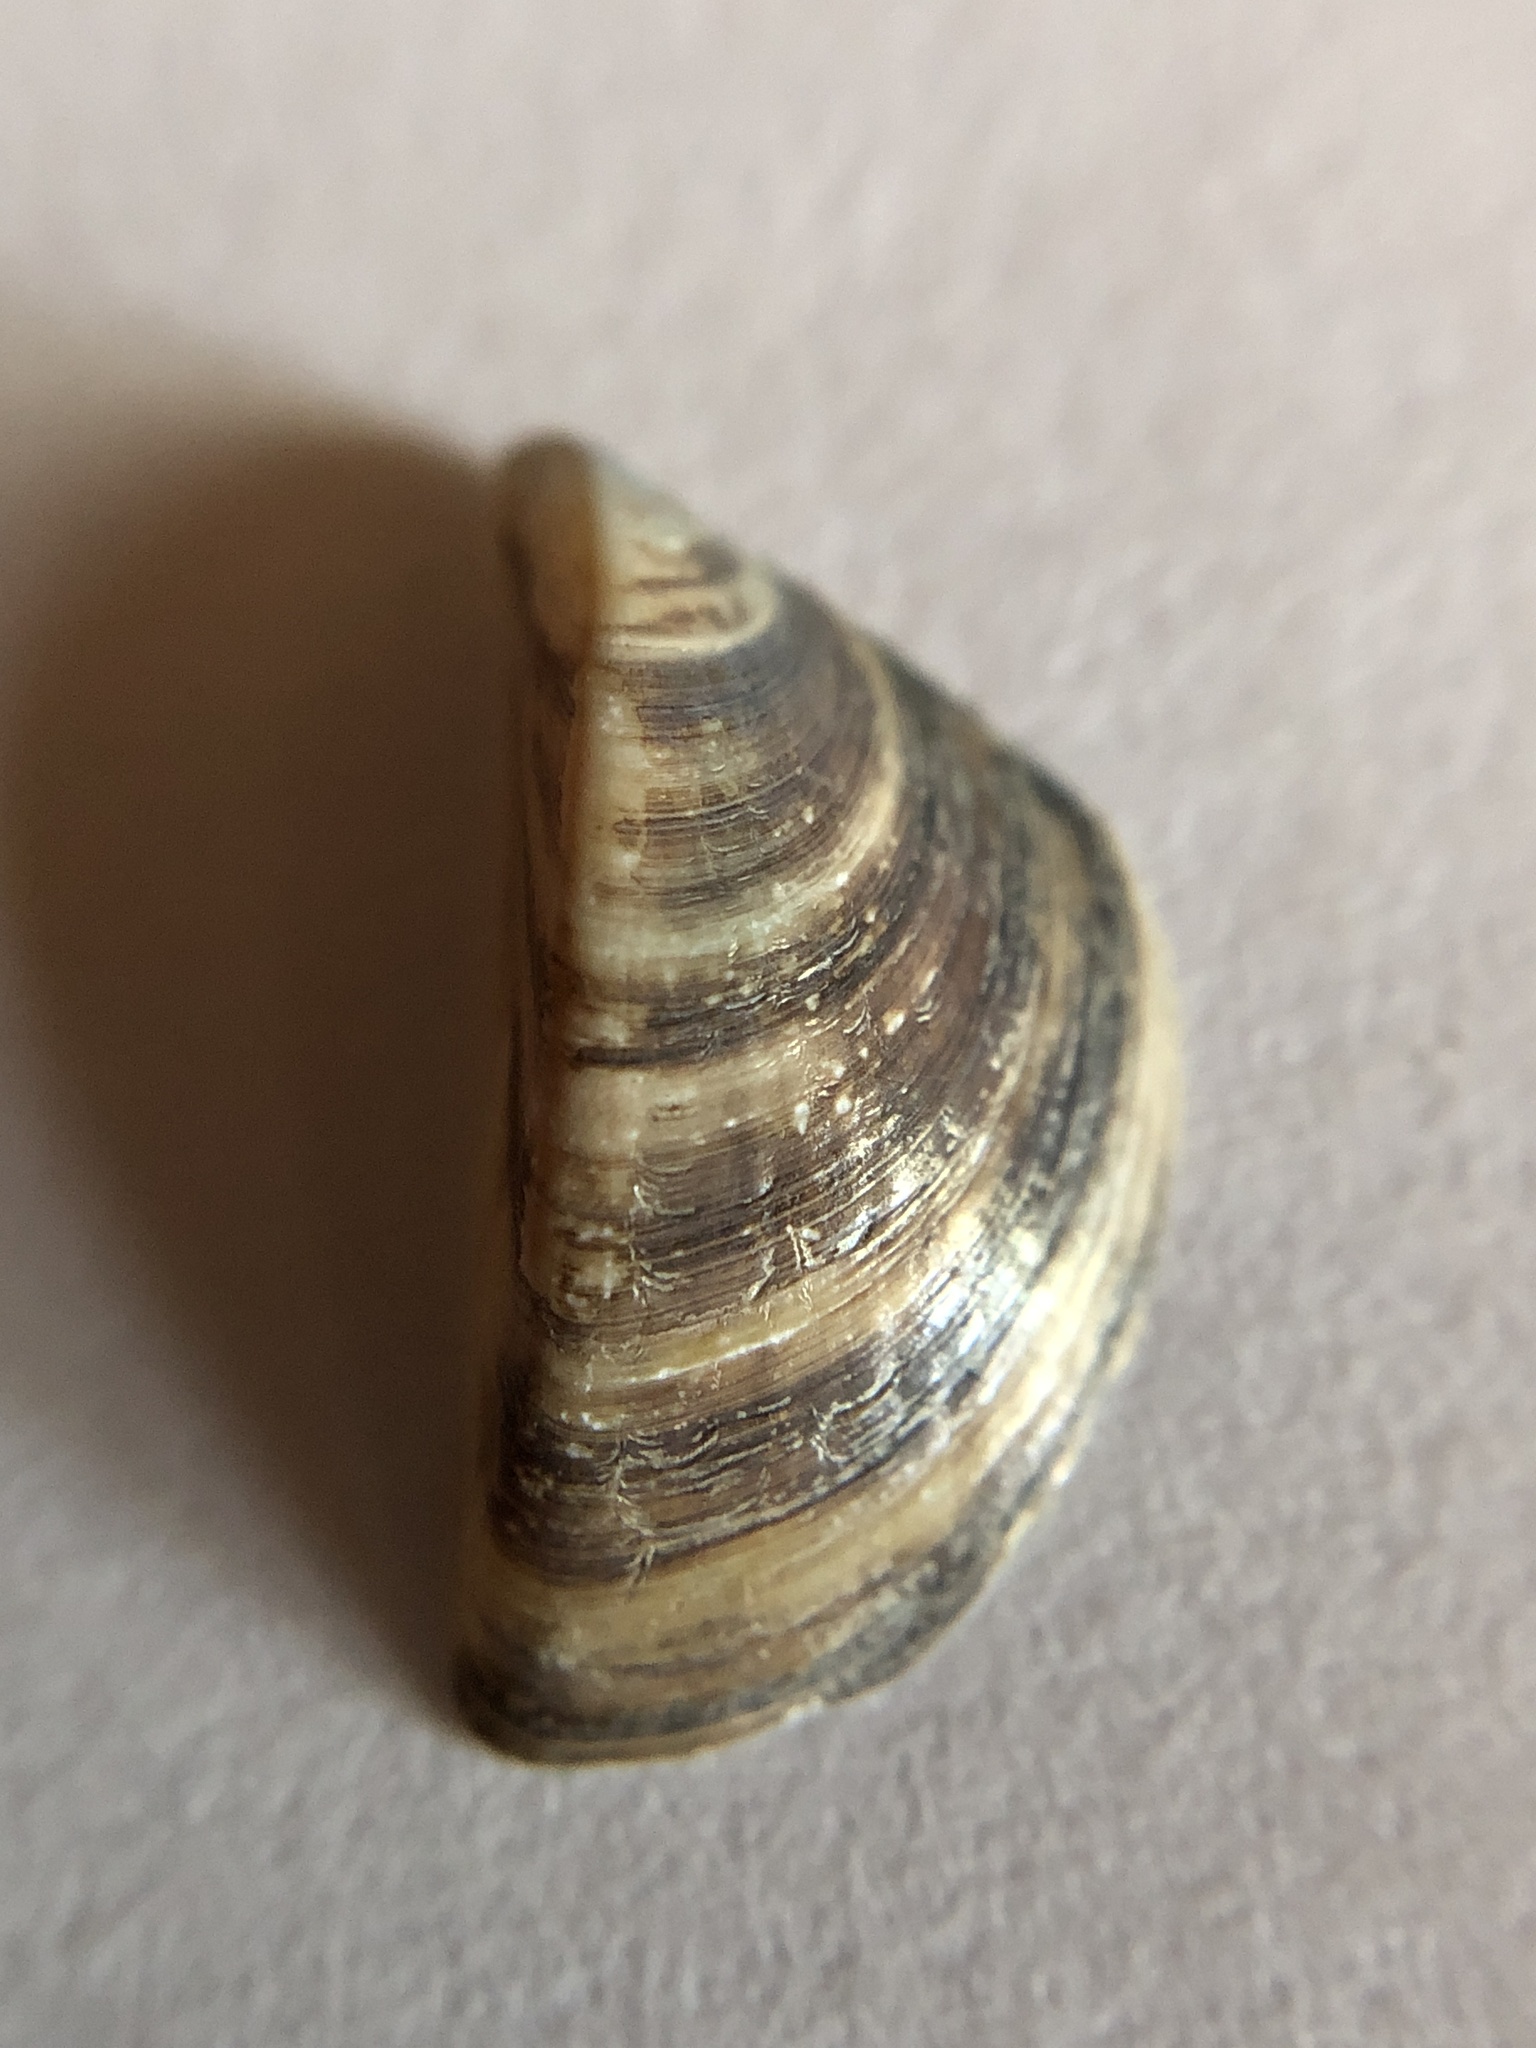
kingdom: Animalia
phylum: Mollusca
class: Bivalvia
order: Myida
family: Dreissenidae
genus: Dreissena
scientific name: Dreissena polymorpha
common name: Zebra mussel
